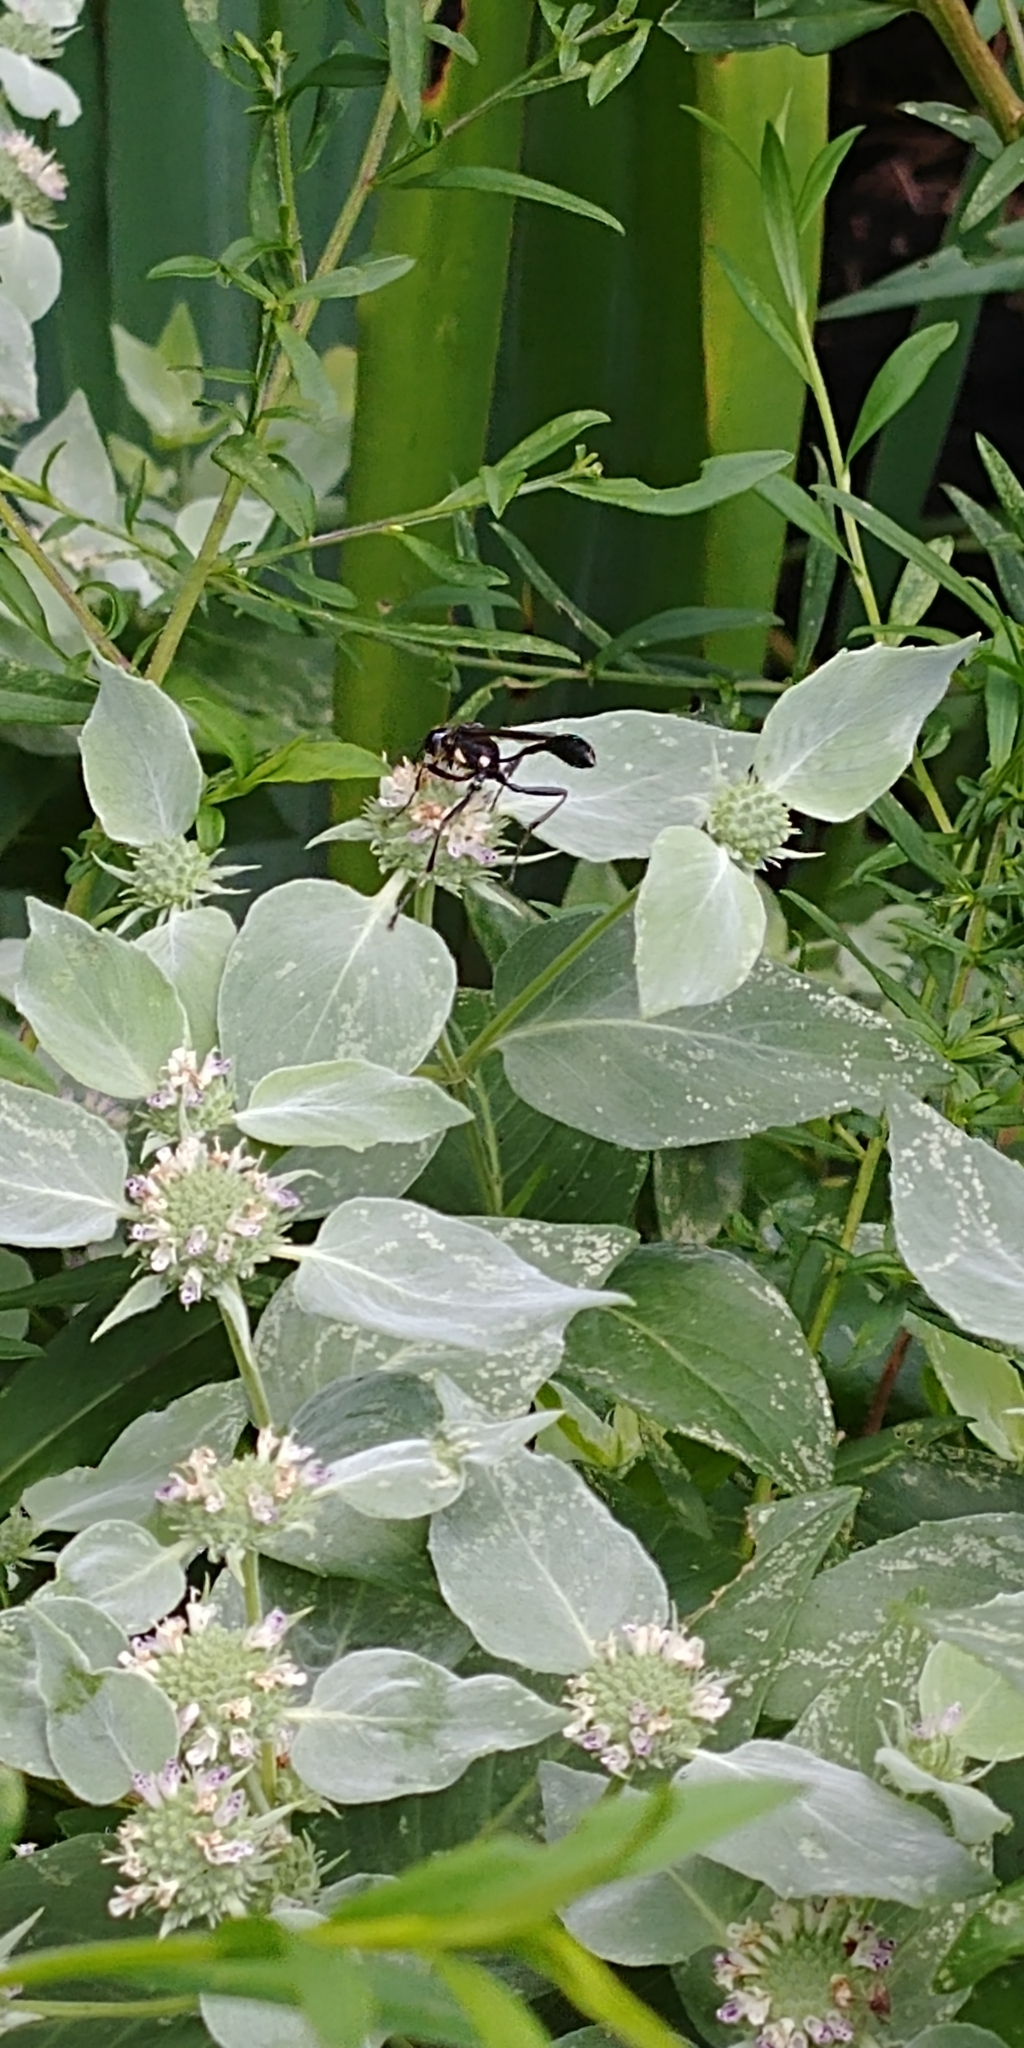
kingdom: Animalia
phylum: Arthropoda
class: Insecta
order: Hymenoptera
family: Sphecidae
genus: Eremnophila
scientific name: Eremnophila aureonotata
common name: Gold-marked thread-waisted wasp
